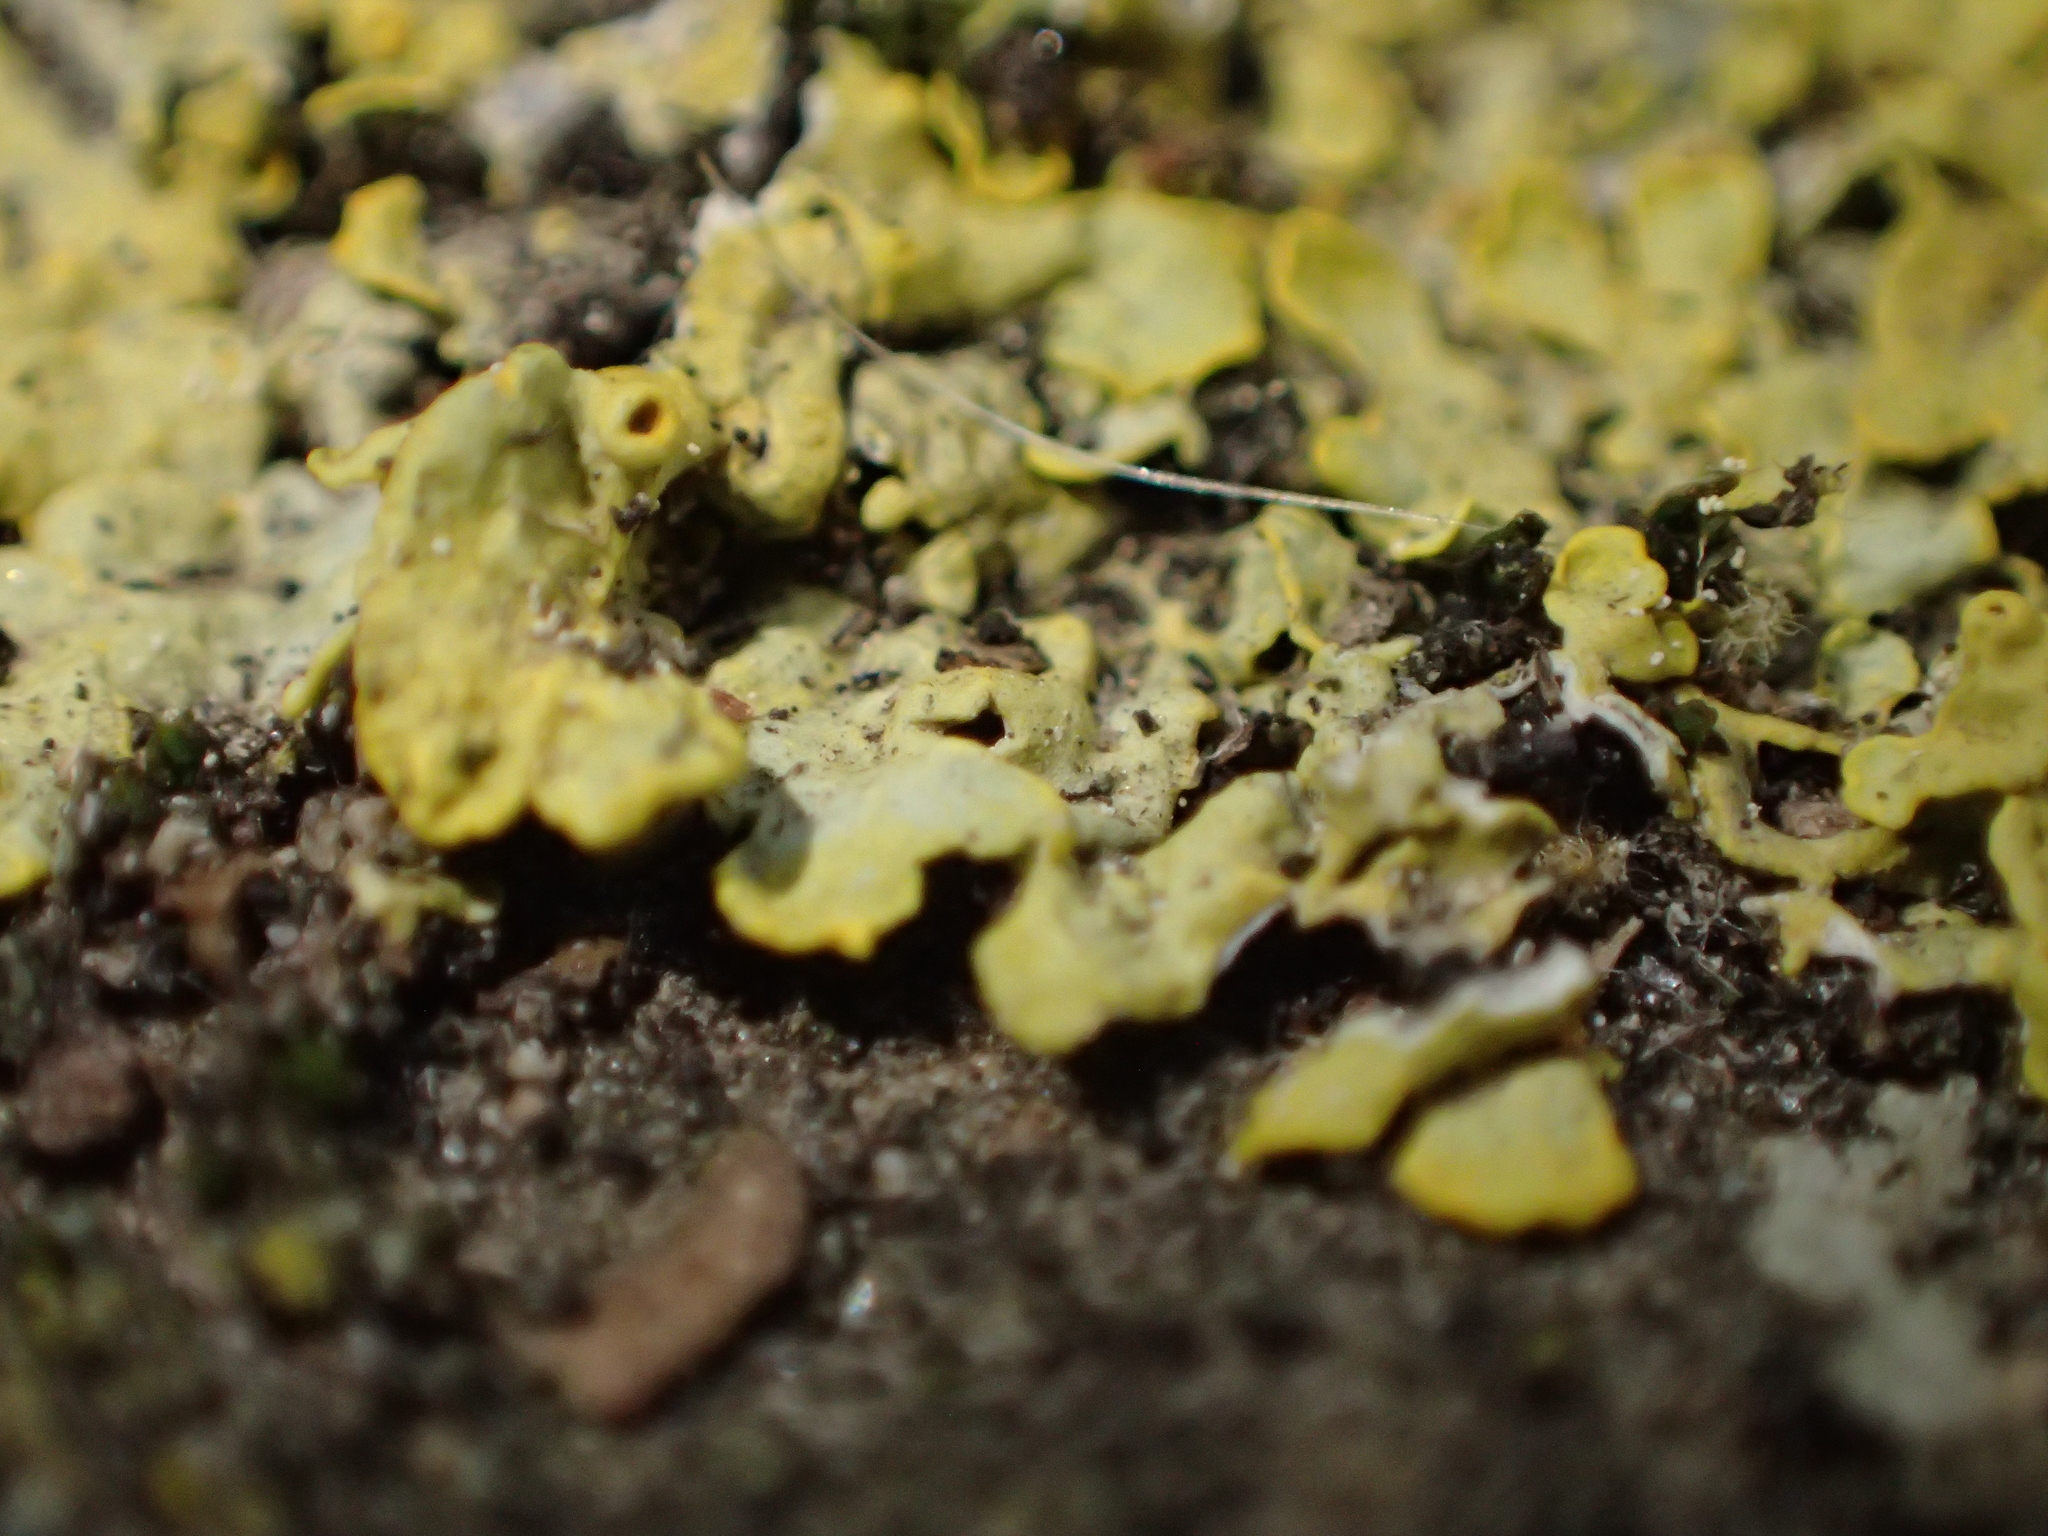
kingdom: Fungi
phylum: Ascomycota
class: Lecanoromycetes
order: Teloschistales
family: Teloschistaceae
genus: Xanthoria
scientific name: Xanthoria parietina
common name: Common orange lichen
